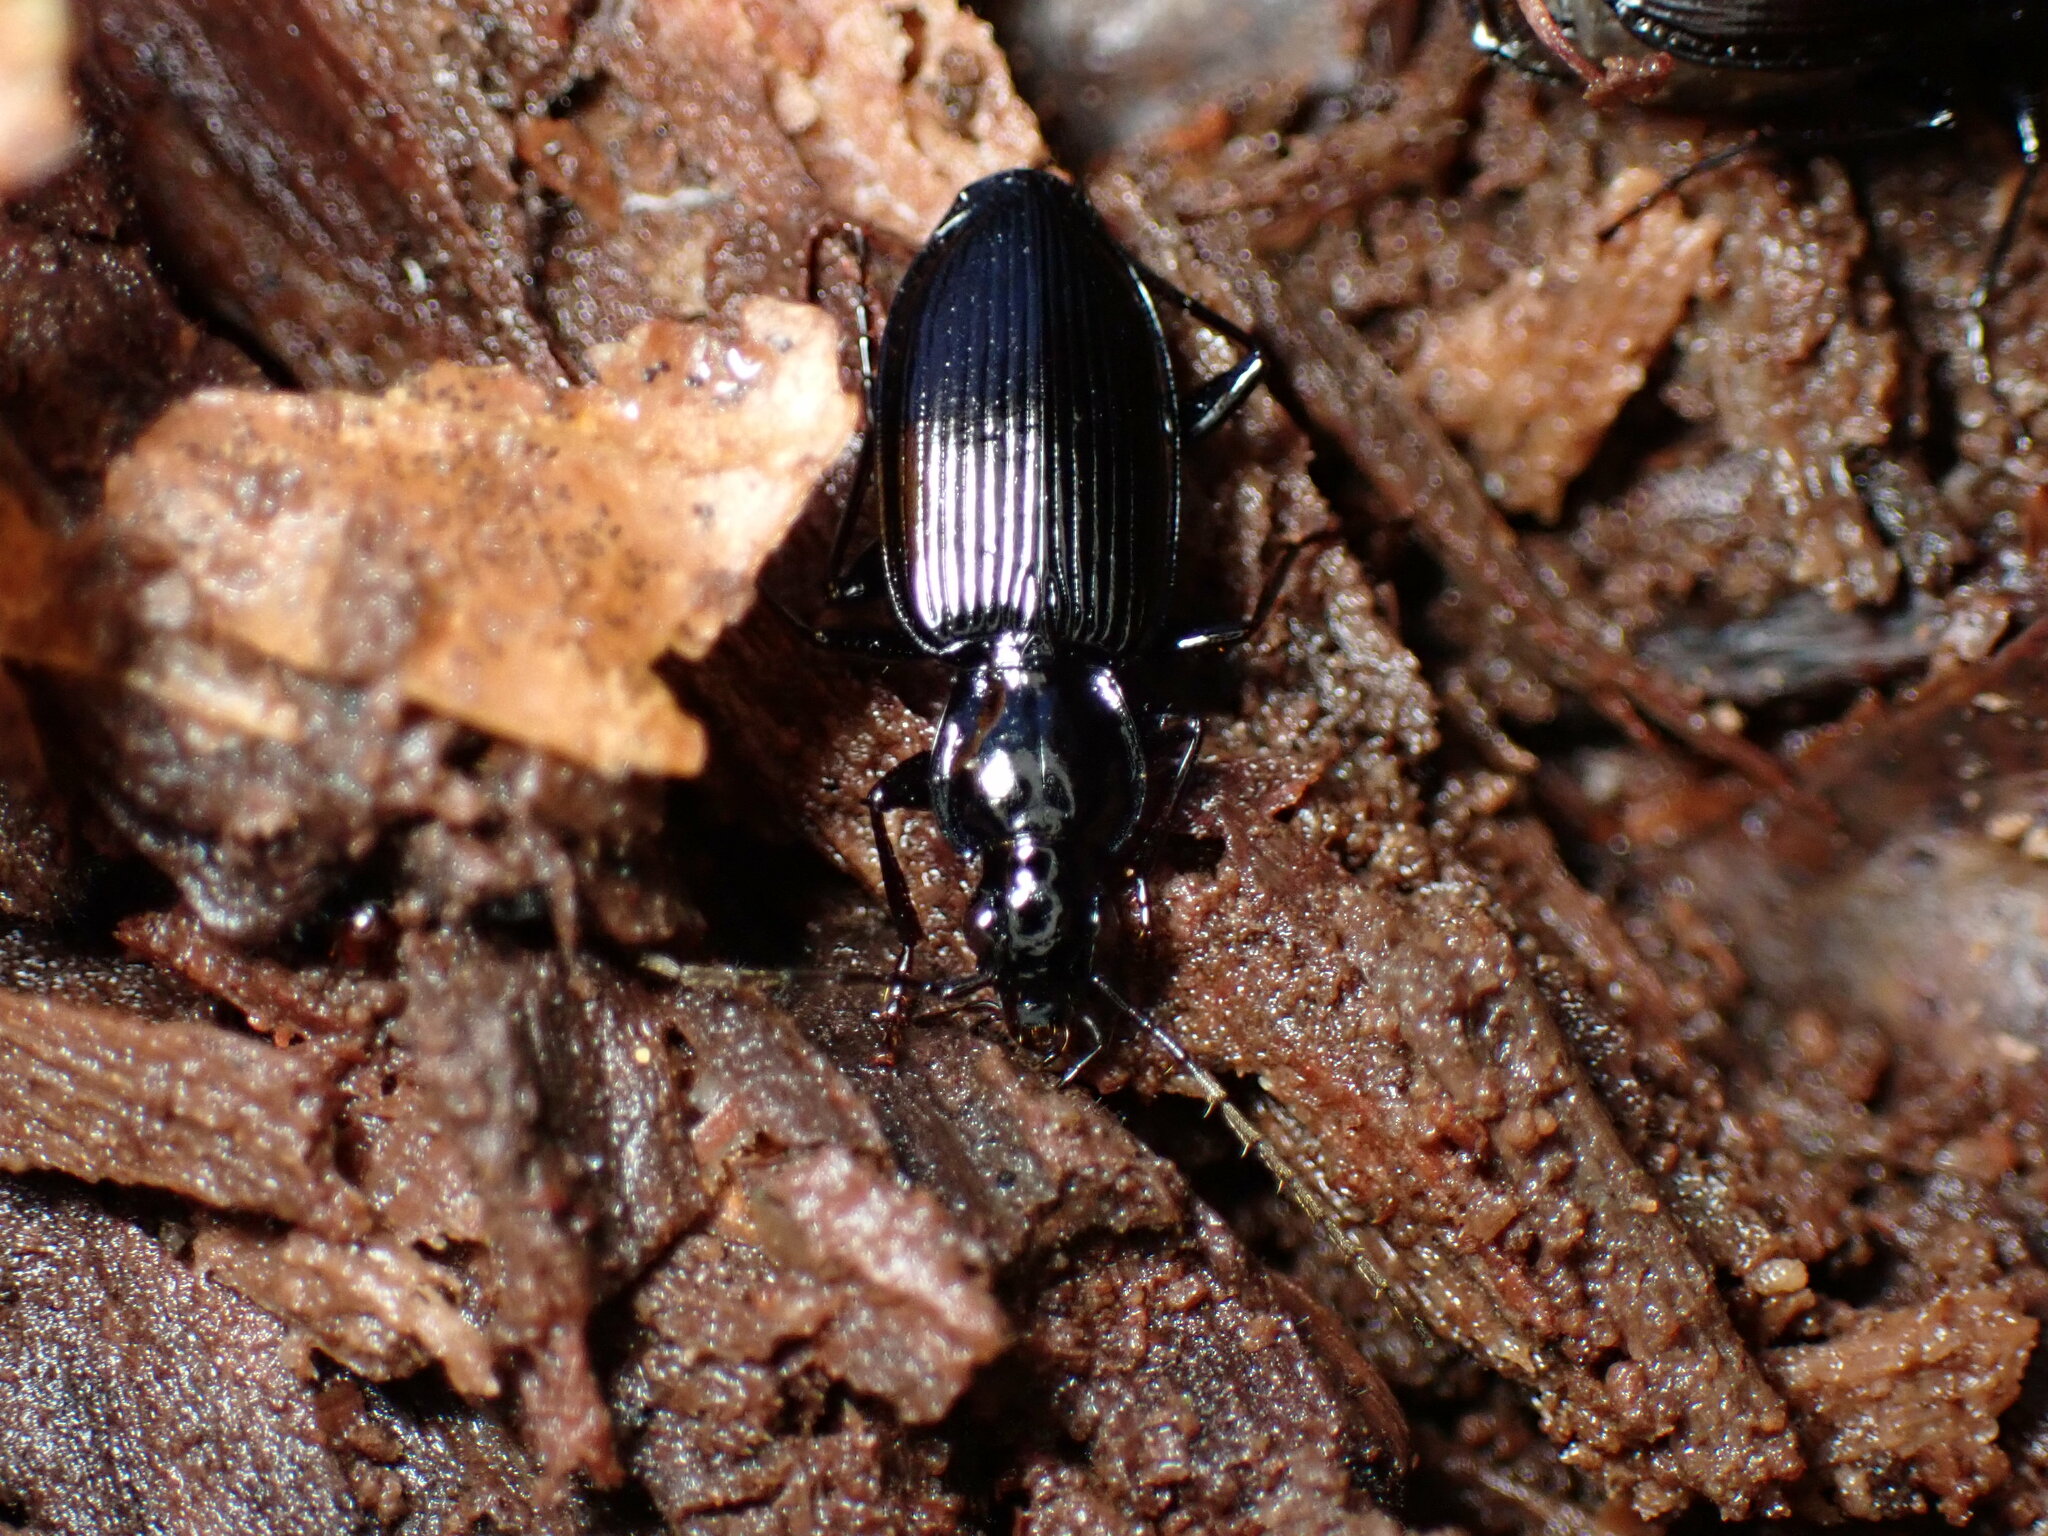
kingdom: Animalia
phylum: Arthropoda
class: Insecta
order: Coleoptera
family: Carabidae
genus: Platynus
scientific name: Platynus decentis
